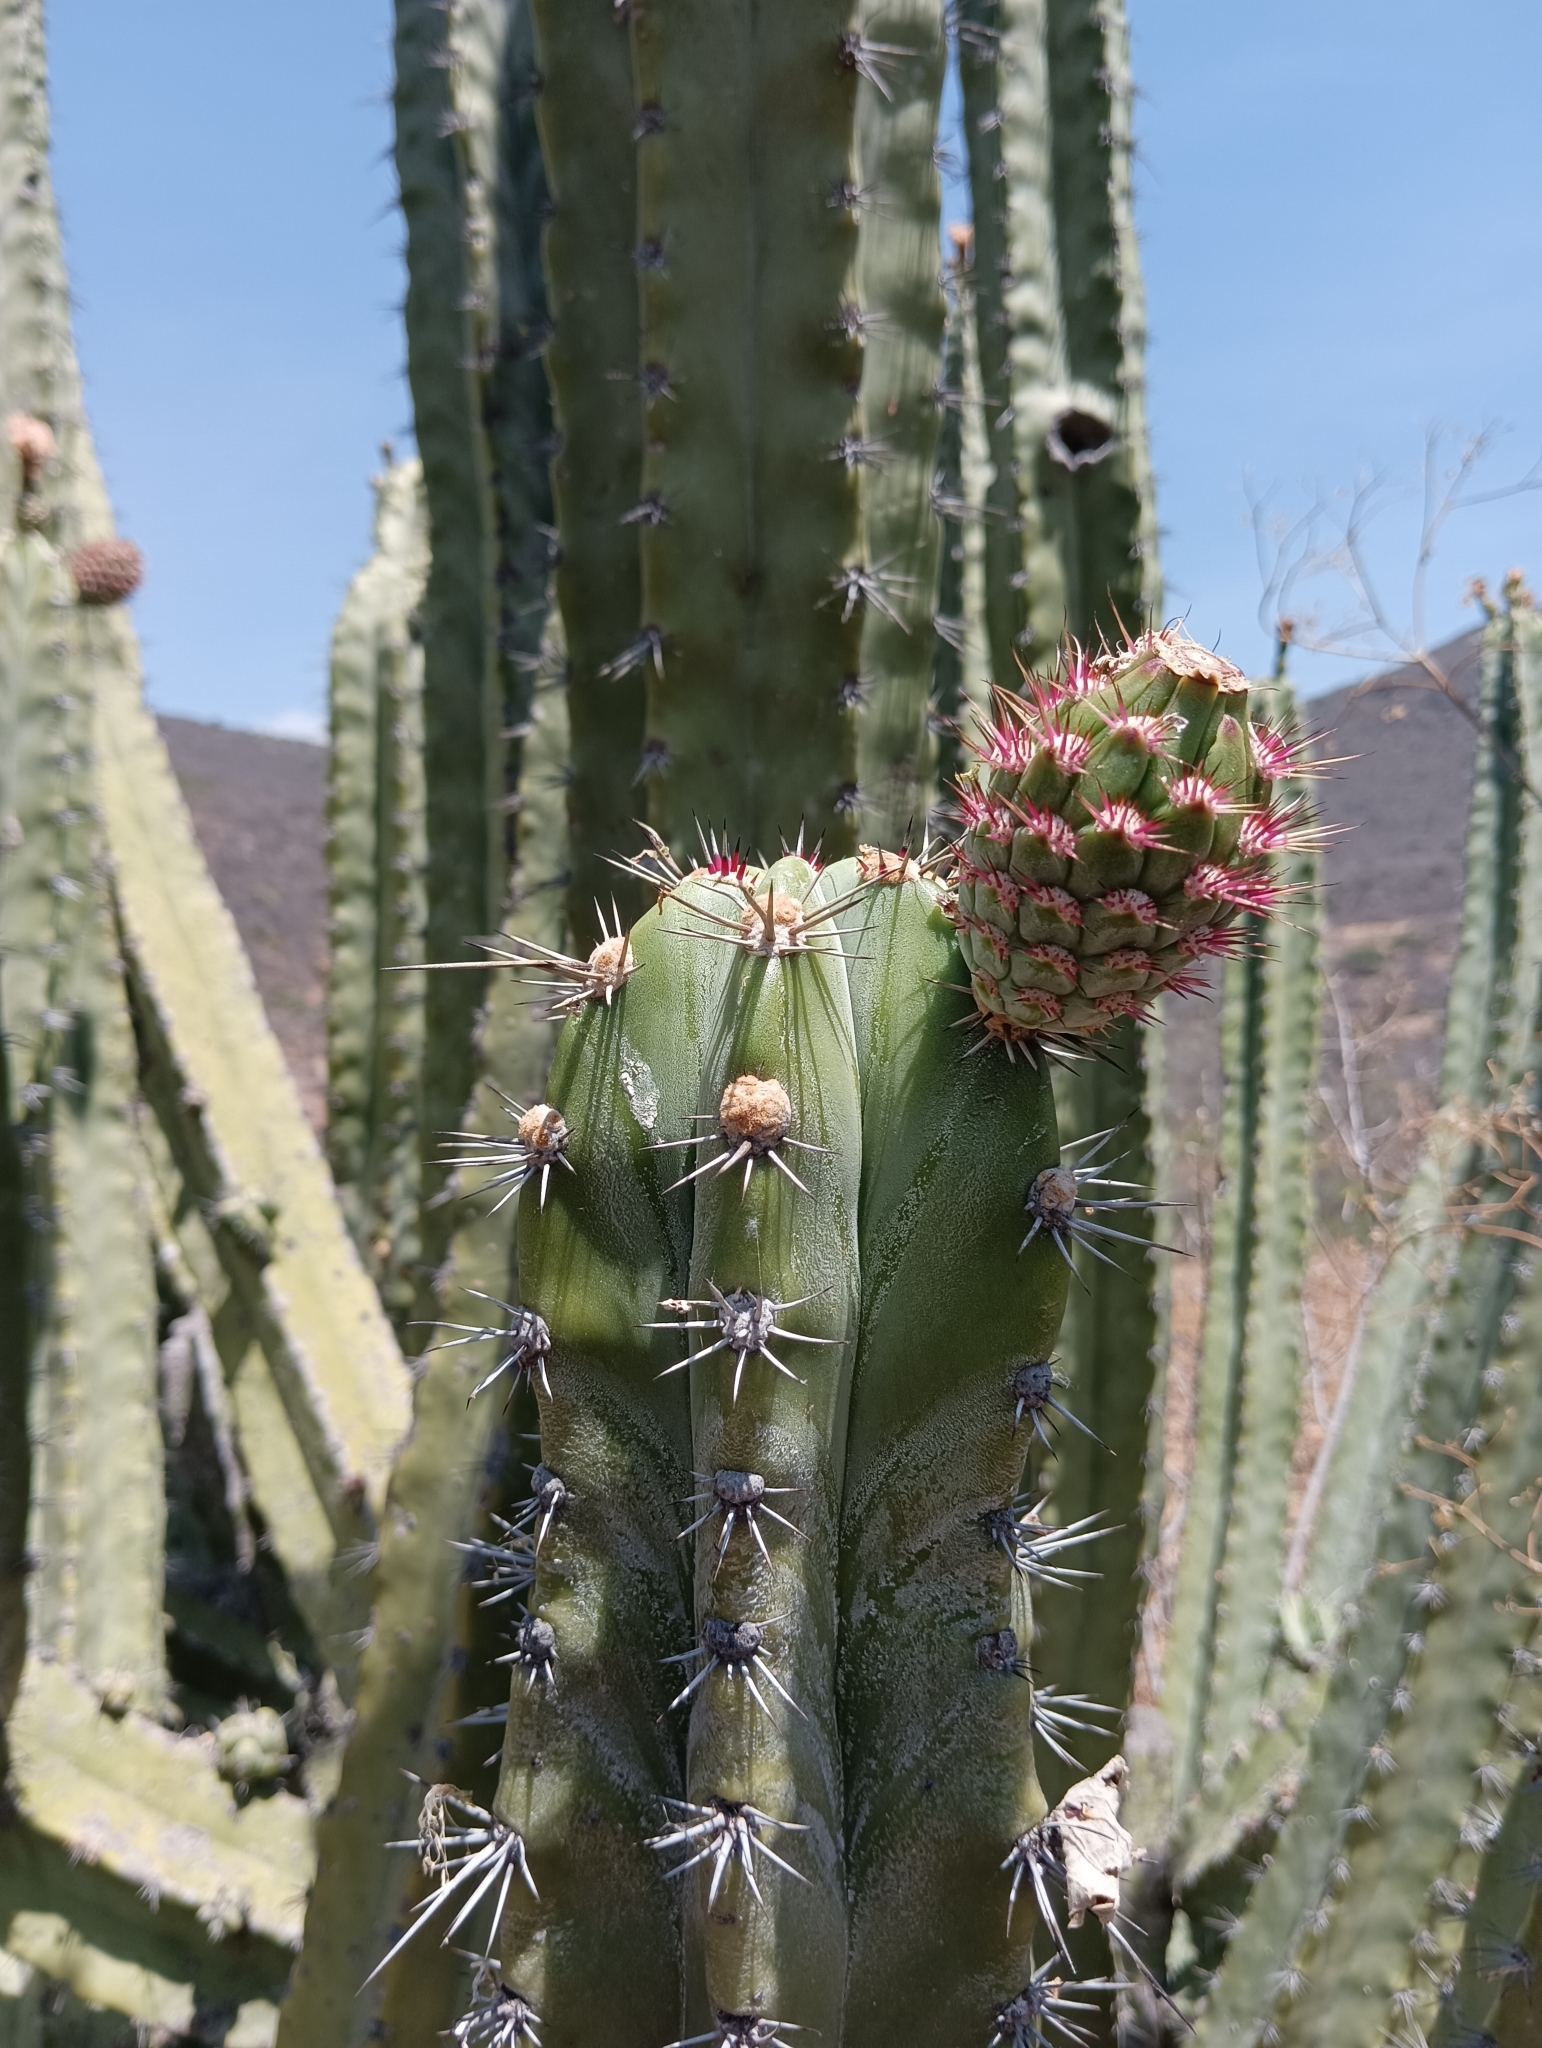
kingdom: Plantae
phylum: Tracheophyta
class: Magnoliopsida
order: Caryophyllales
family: Cactaceae
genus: Stenocereus
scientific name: Stenocereus pruinosus
